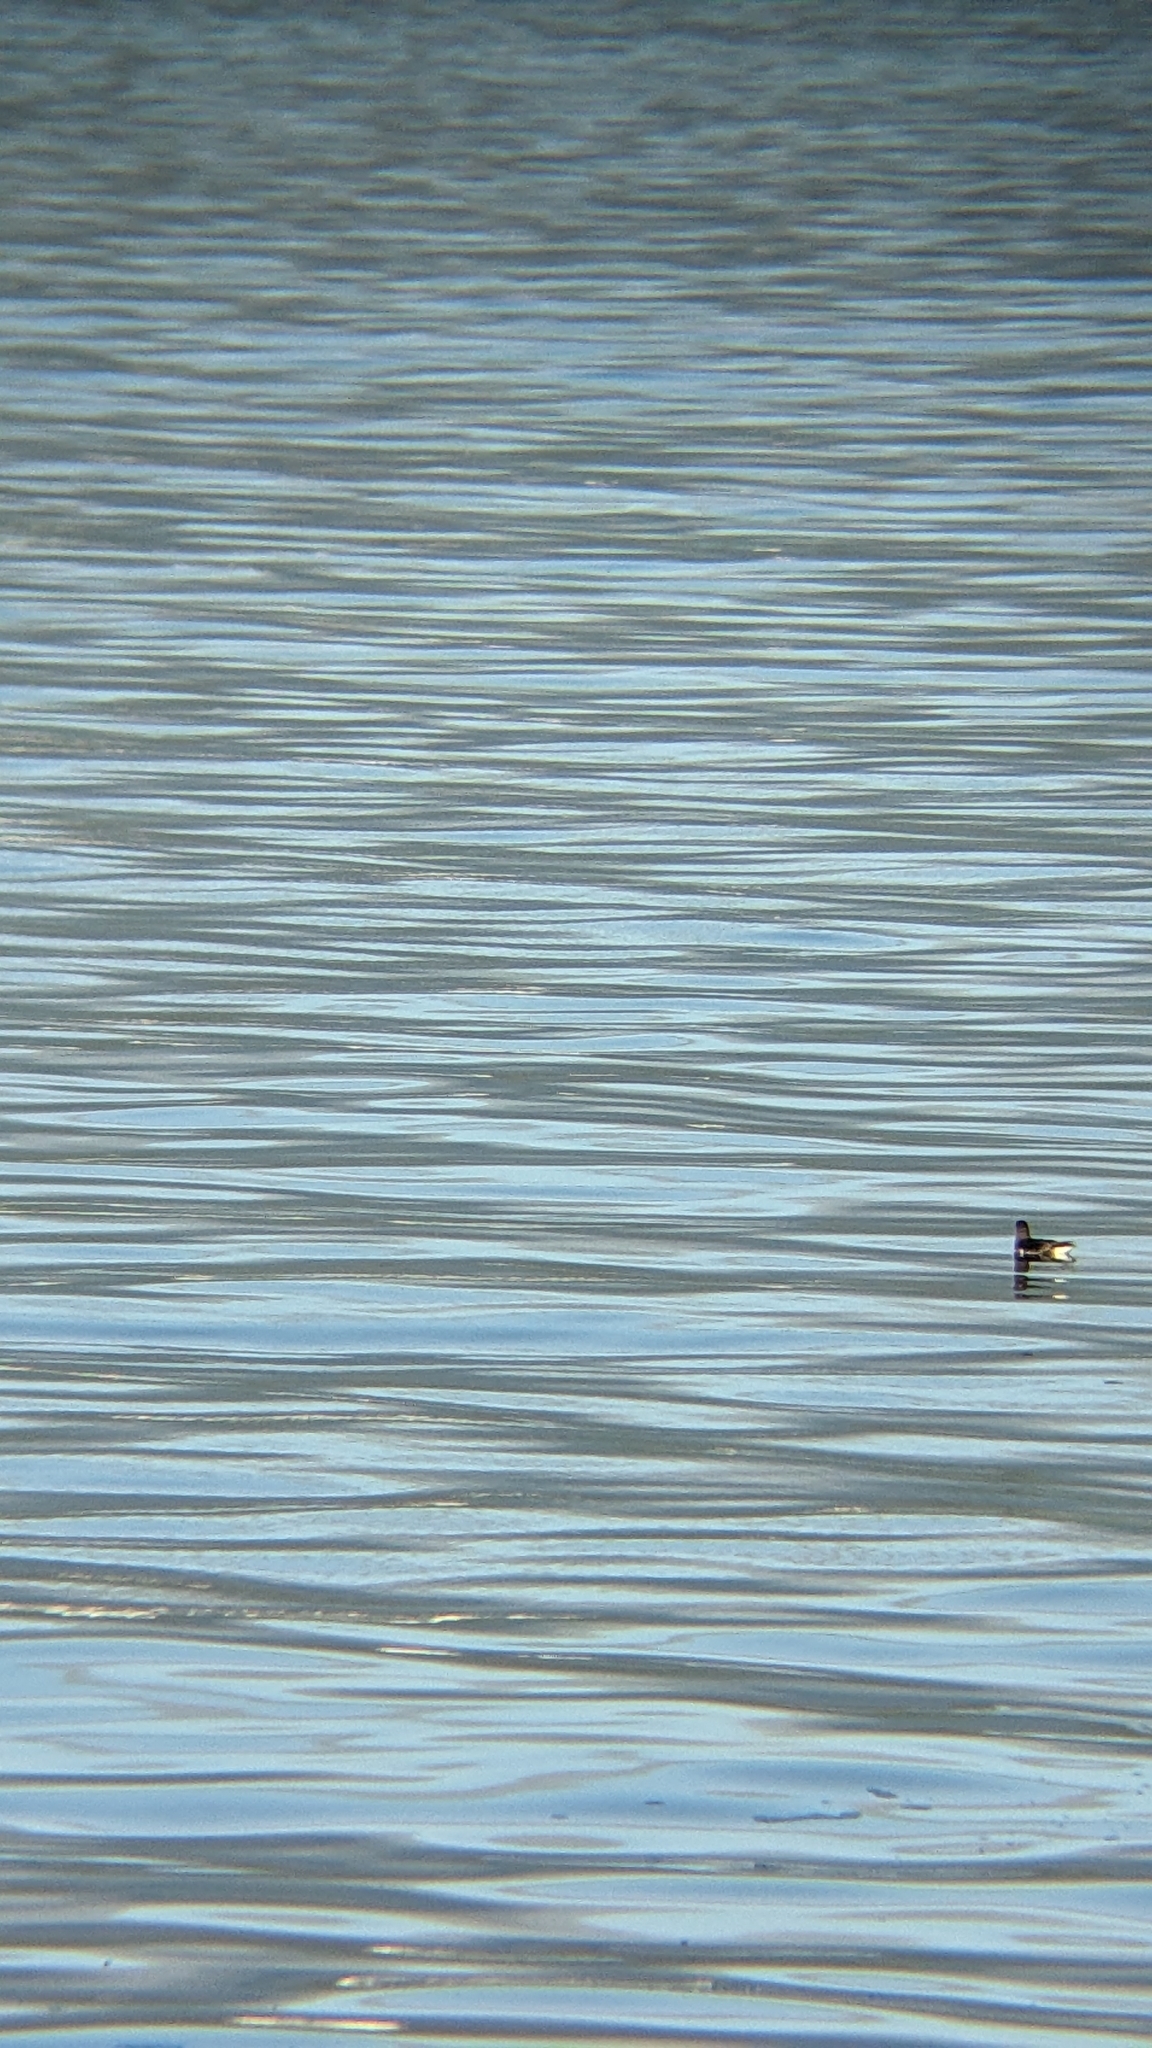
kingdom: Animalia
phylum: Chordata
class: Aves
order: Procellariiformes
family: Procellariidae
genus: Puffinus
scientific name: Puffinus gavia
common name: Fluttering shearwater
